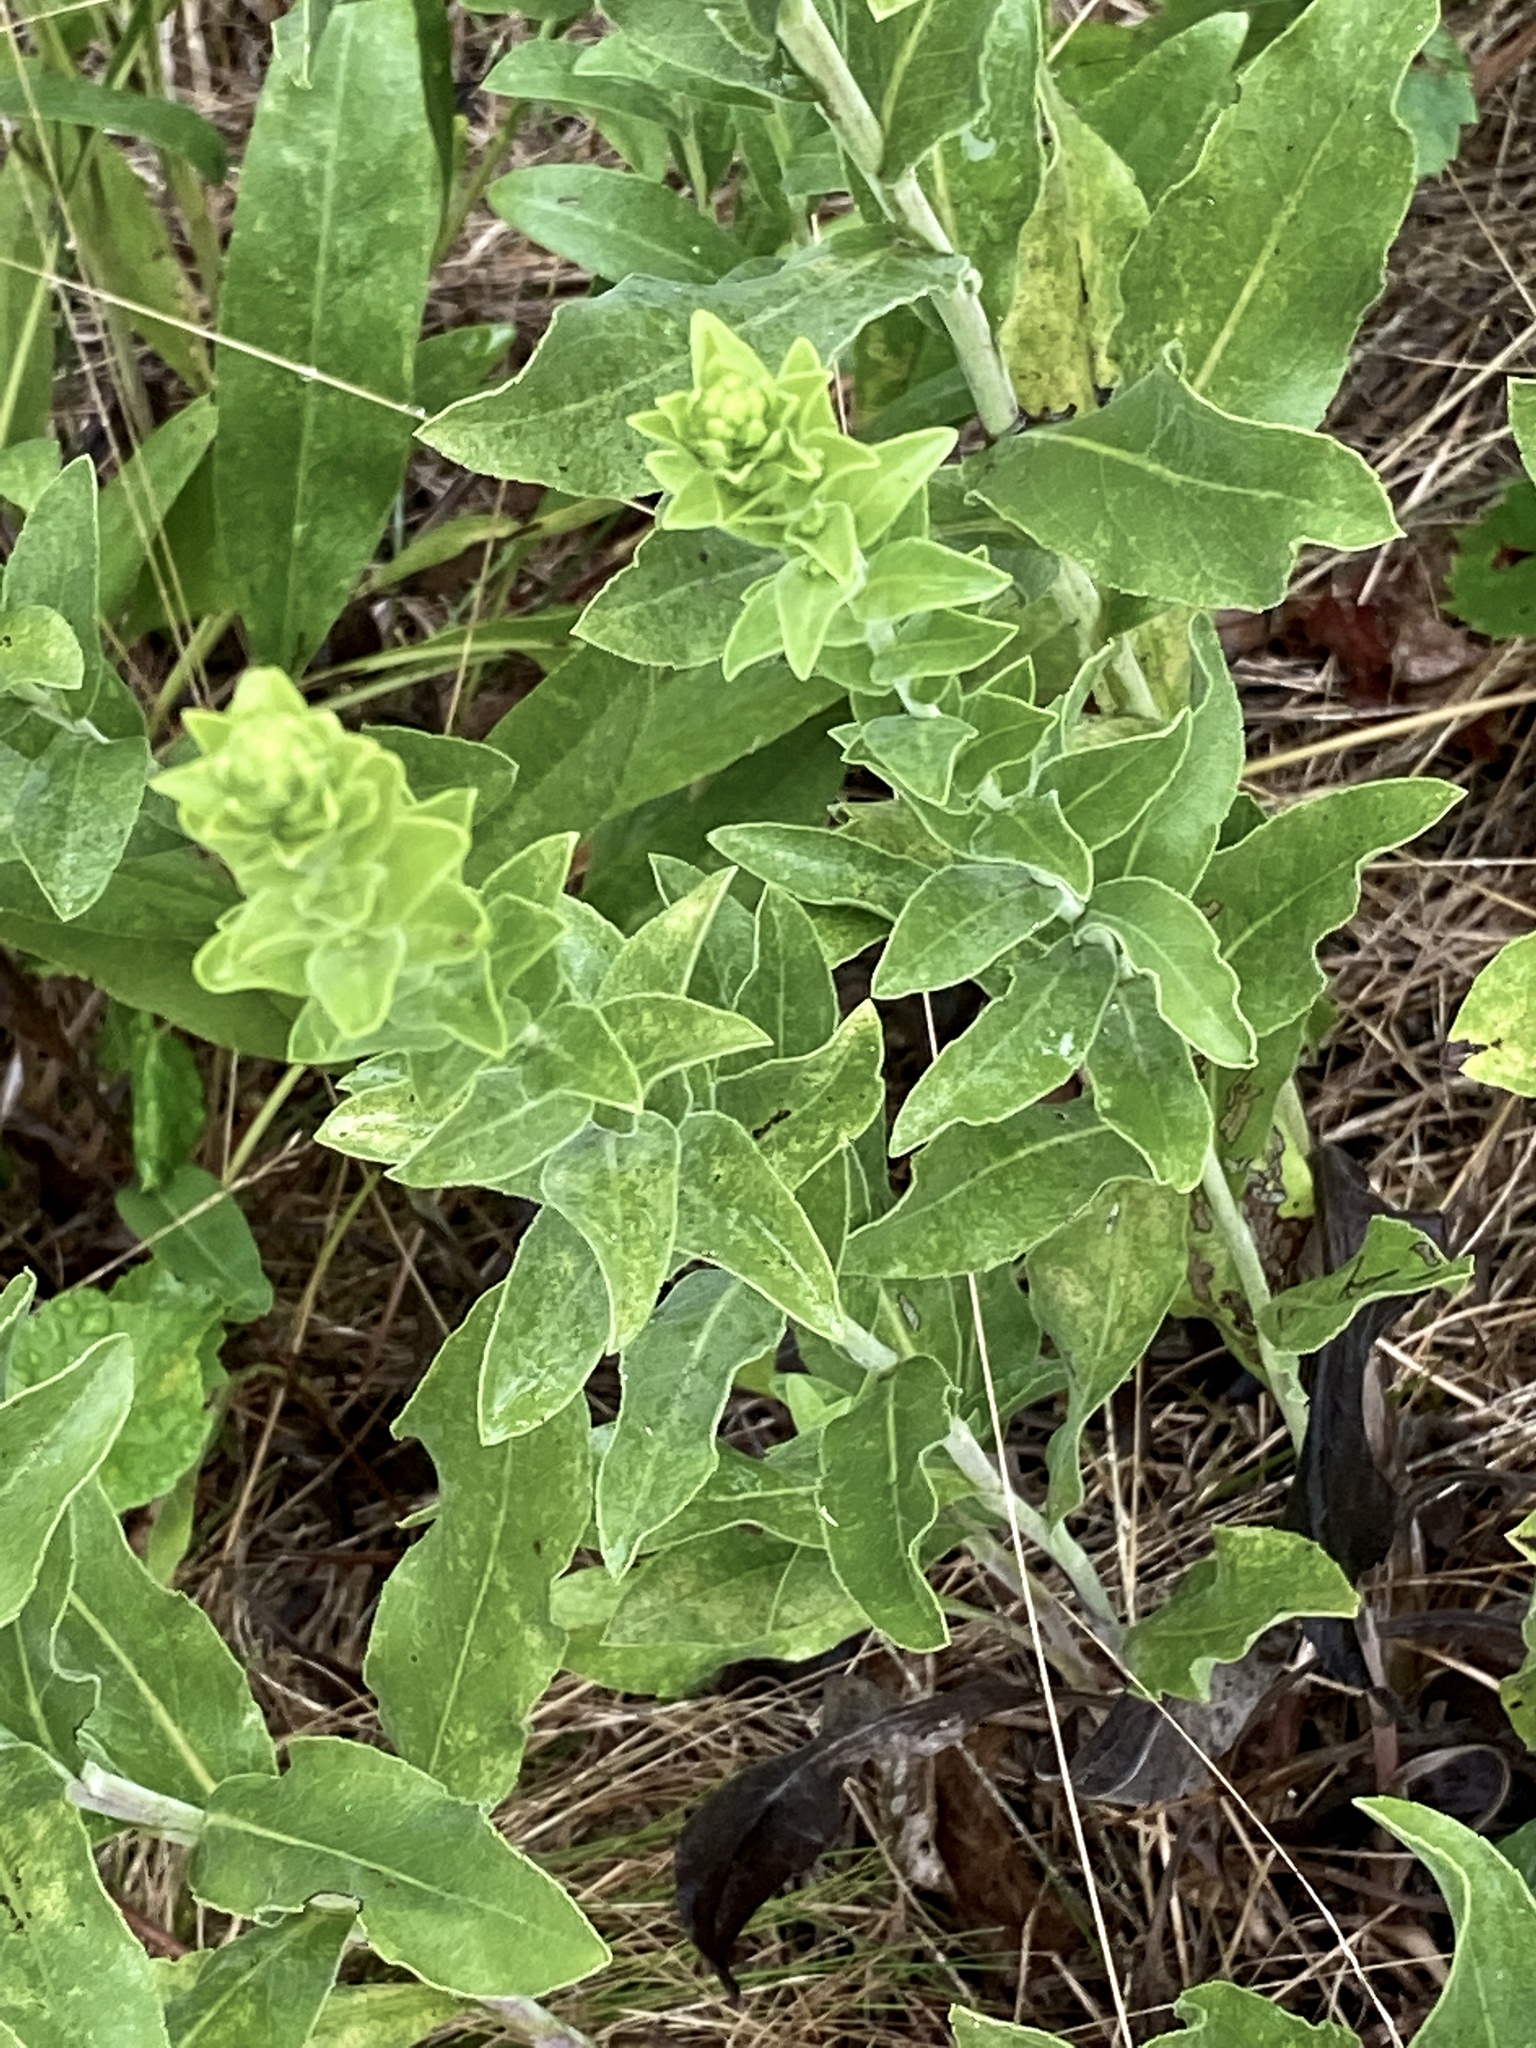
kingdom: Plantae
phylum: Tracheophyta
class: Magnoliopsida
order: Asterales
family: Asteraceae
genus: Solidago
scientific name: Solidago rigida
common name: Rigid goldenrod
